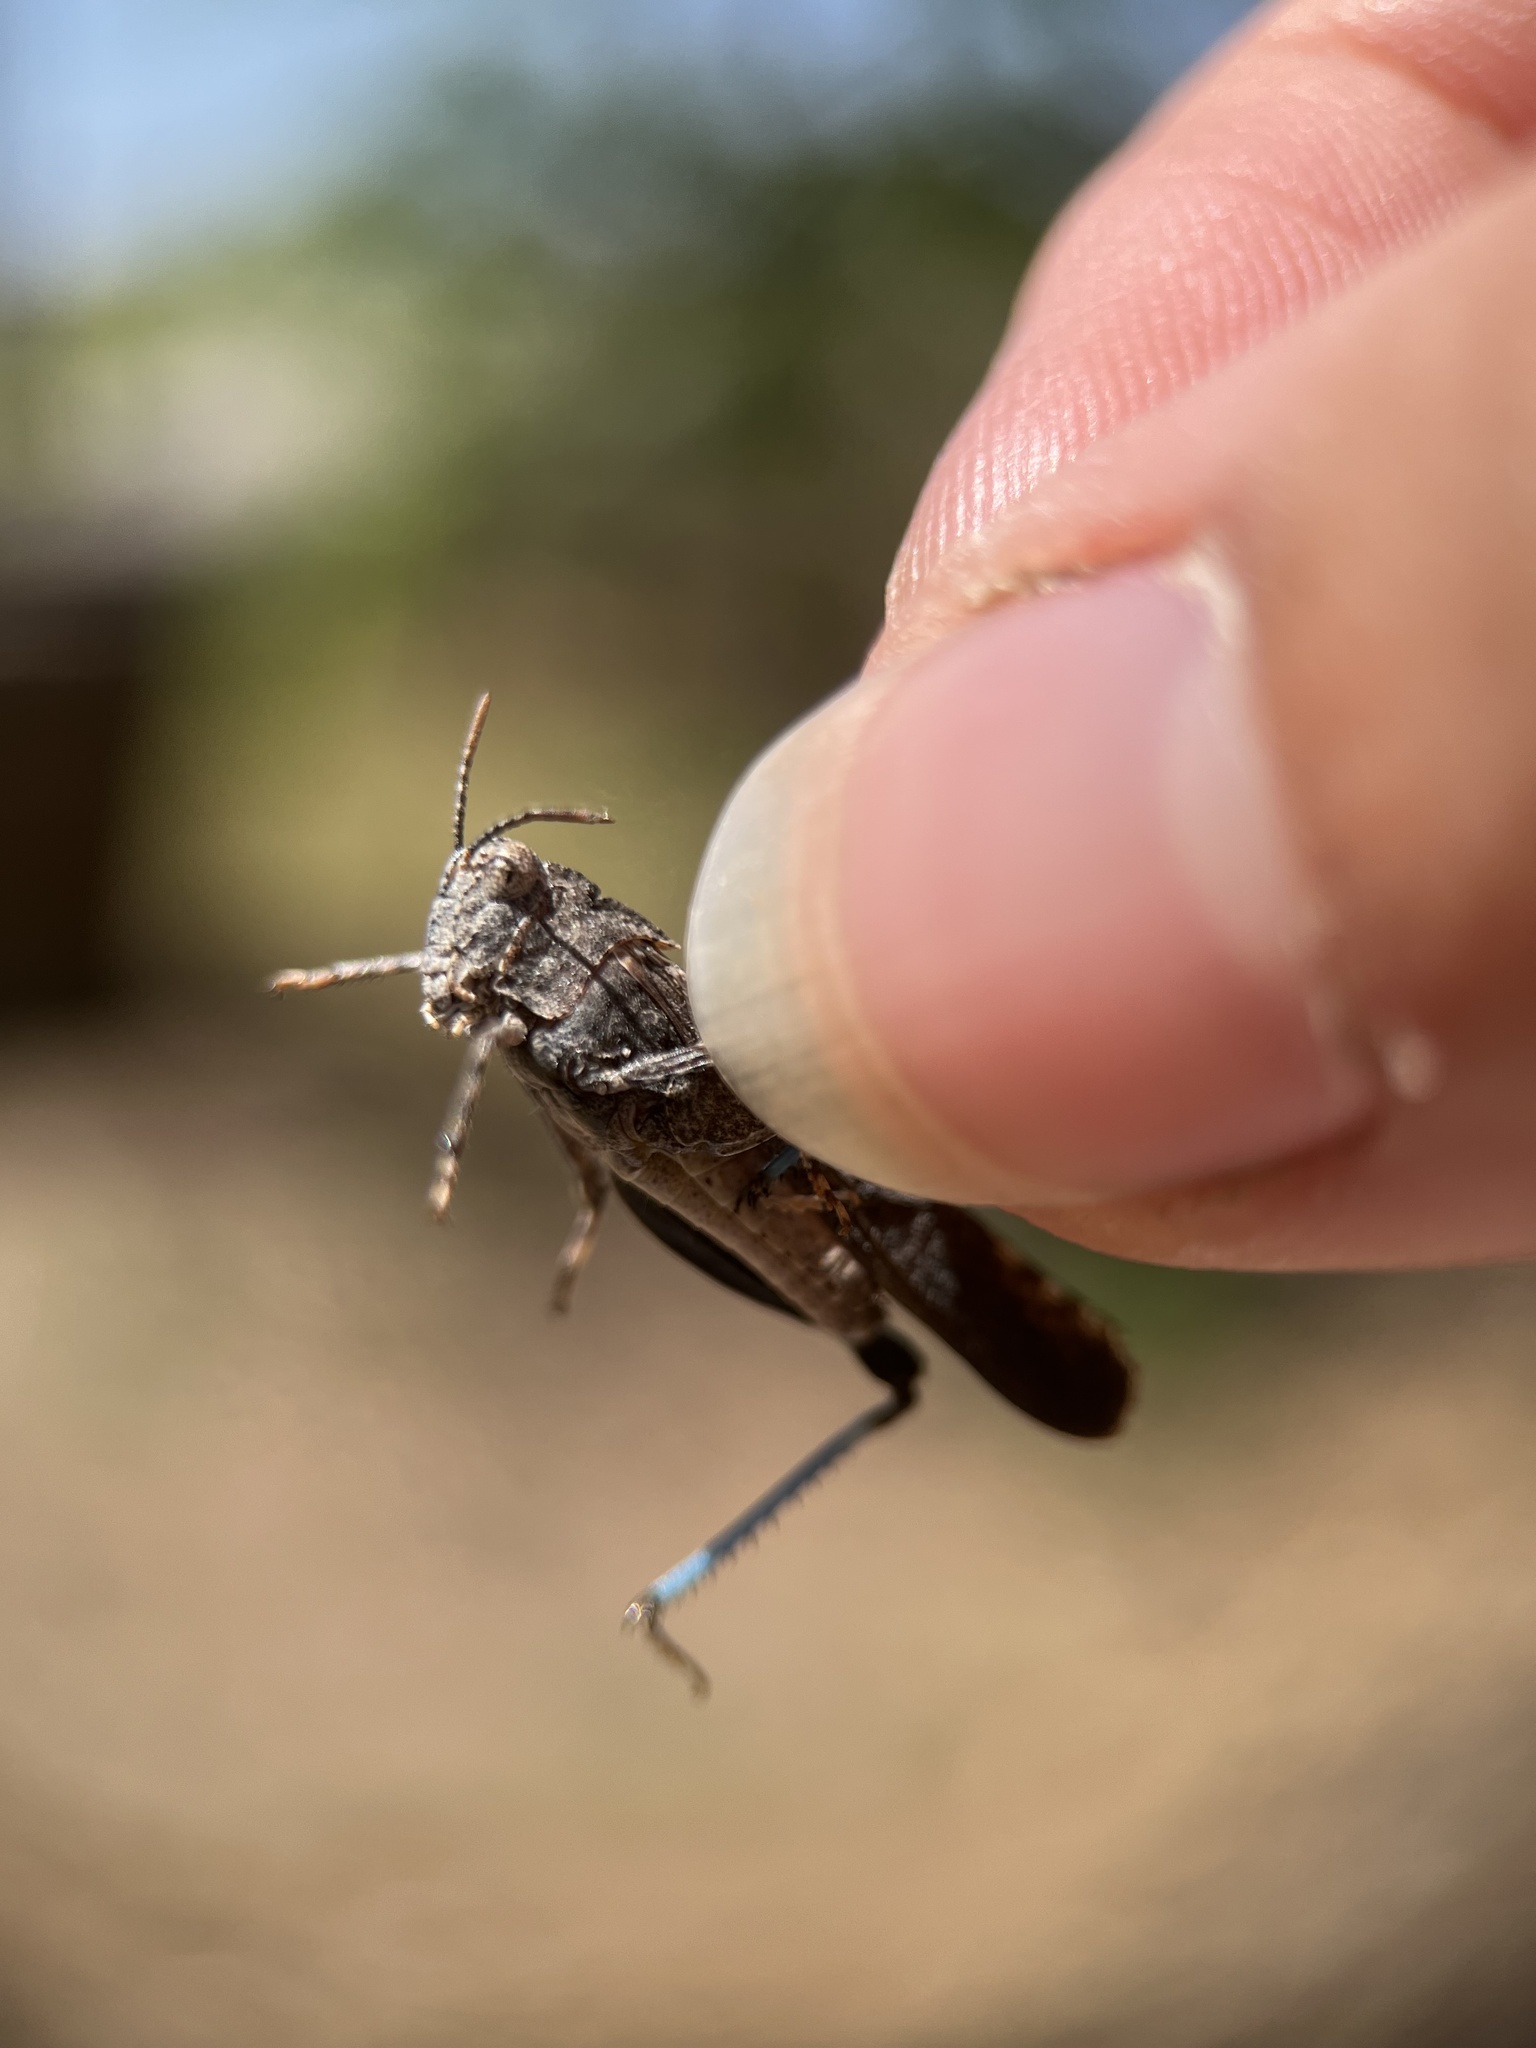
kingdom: Animalia
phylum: Arthropoda
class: Insecta
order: Orthoptera
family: Acrididae
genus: Lactista
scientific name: Lactista gibbosus
